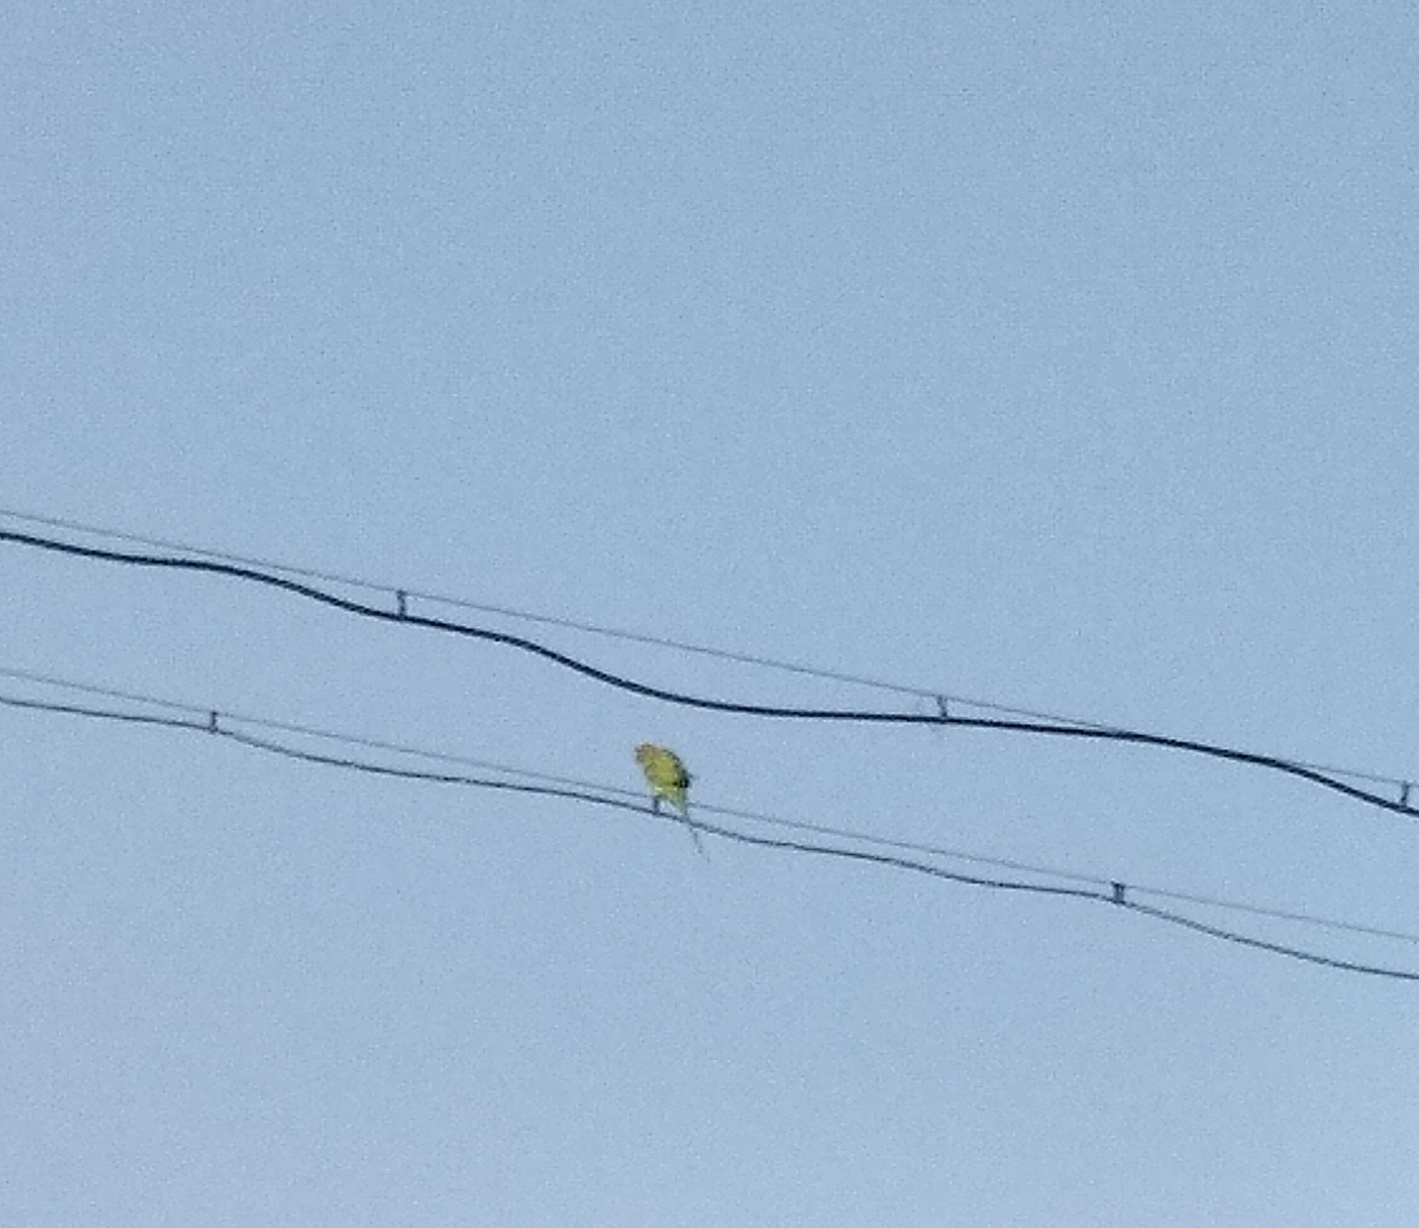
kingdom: Animalia
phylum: Chordata
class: Aves
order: Psittaciformes
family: Psittacidae
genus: Psittacula
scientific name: Psittacula krameri
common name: Rose-ringed parakeet
